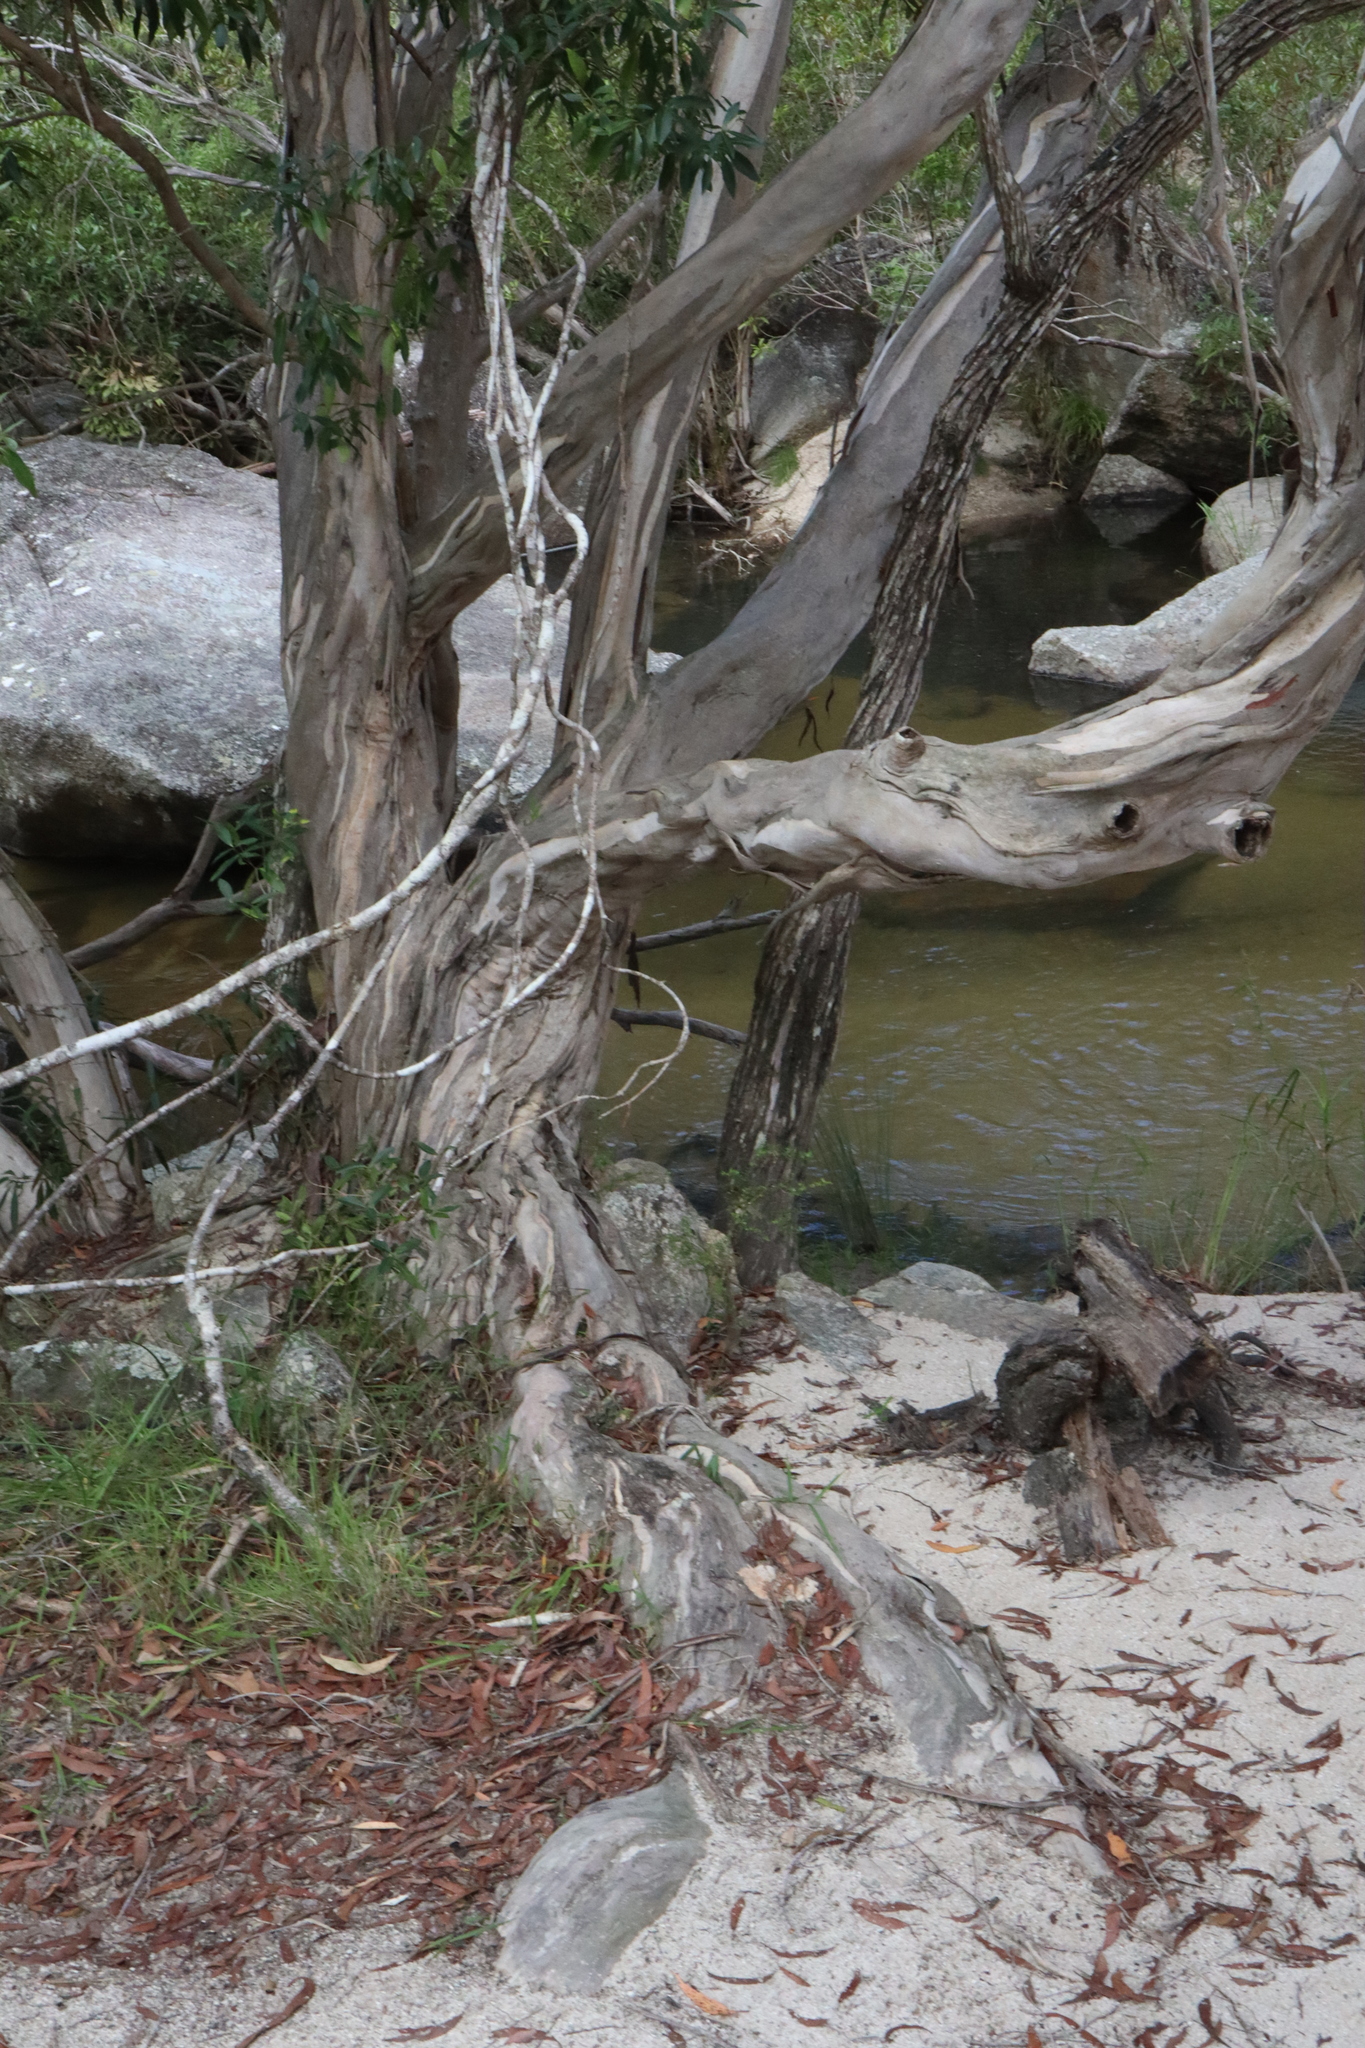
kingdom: Plantae
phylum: Tracheophyta
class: Magnoliopsida
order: Myrtales
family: Myrtaceae
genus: Tristaniopsis
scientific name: Tristaniopsis exiliflora
